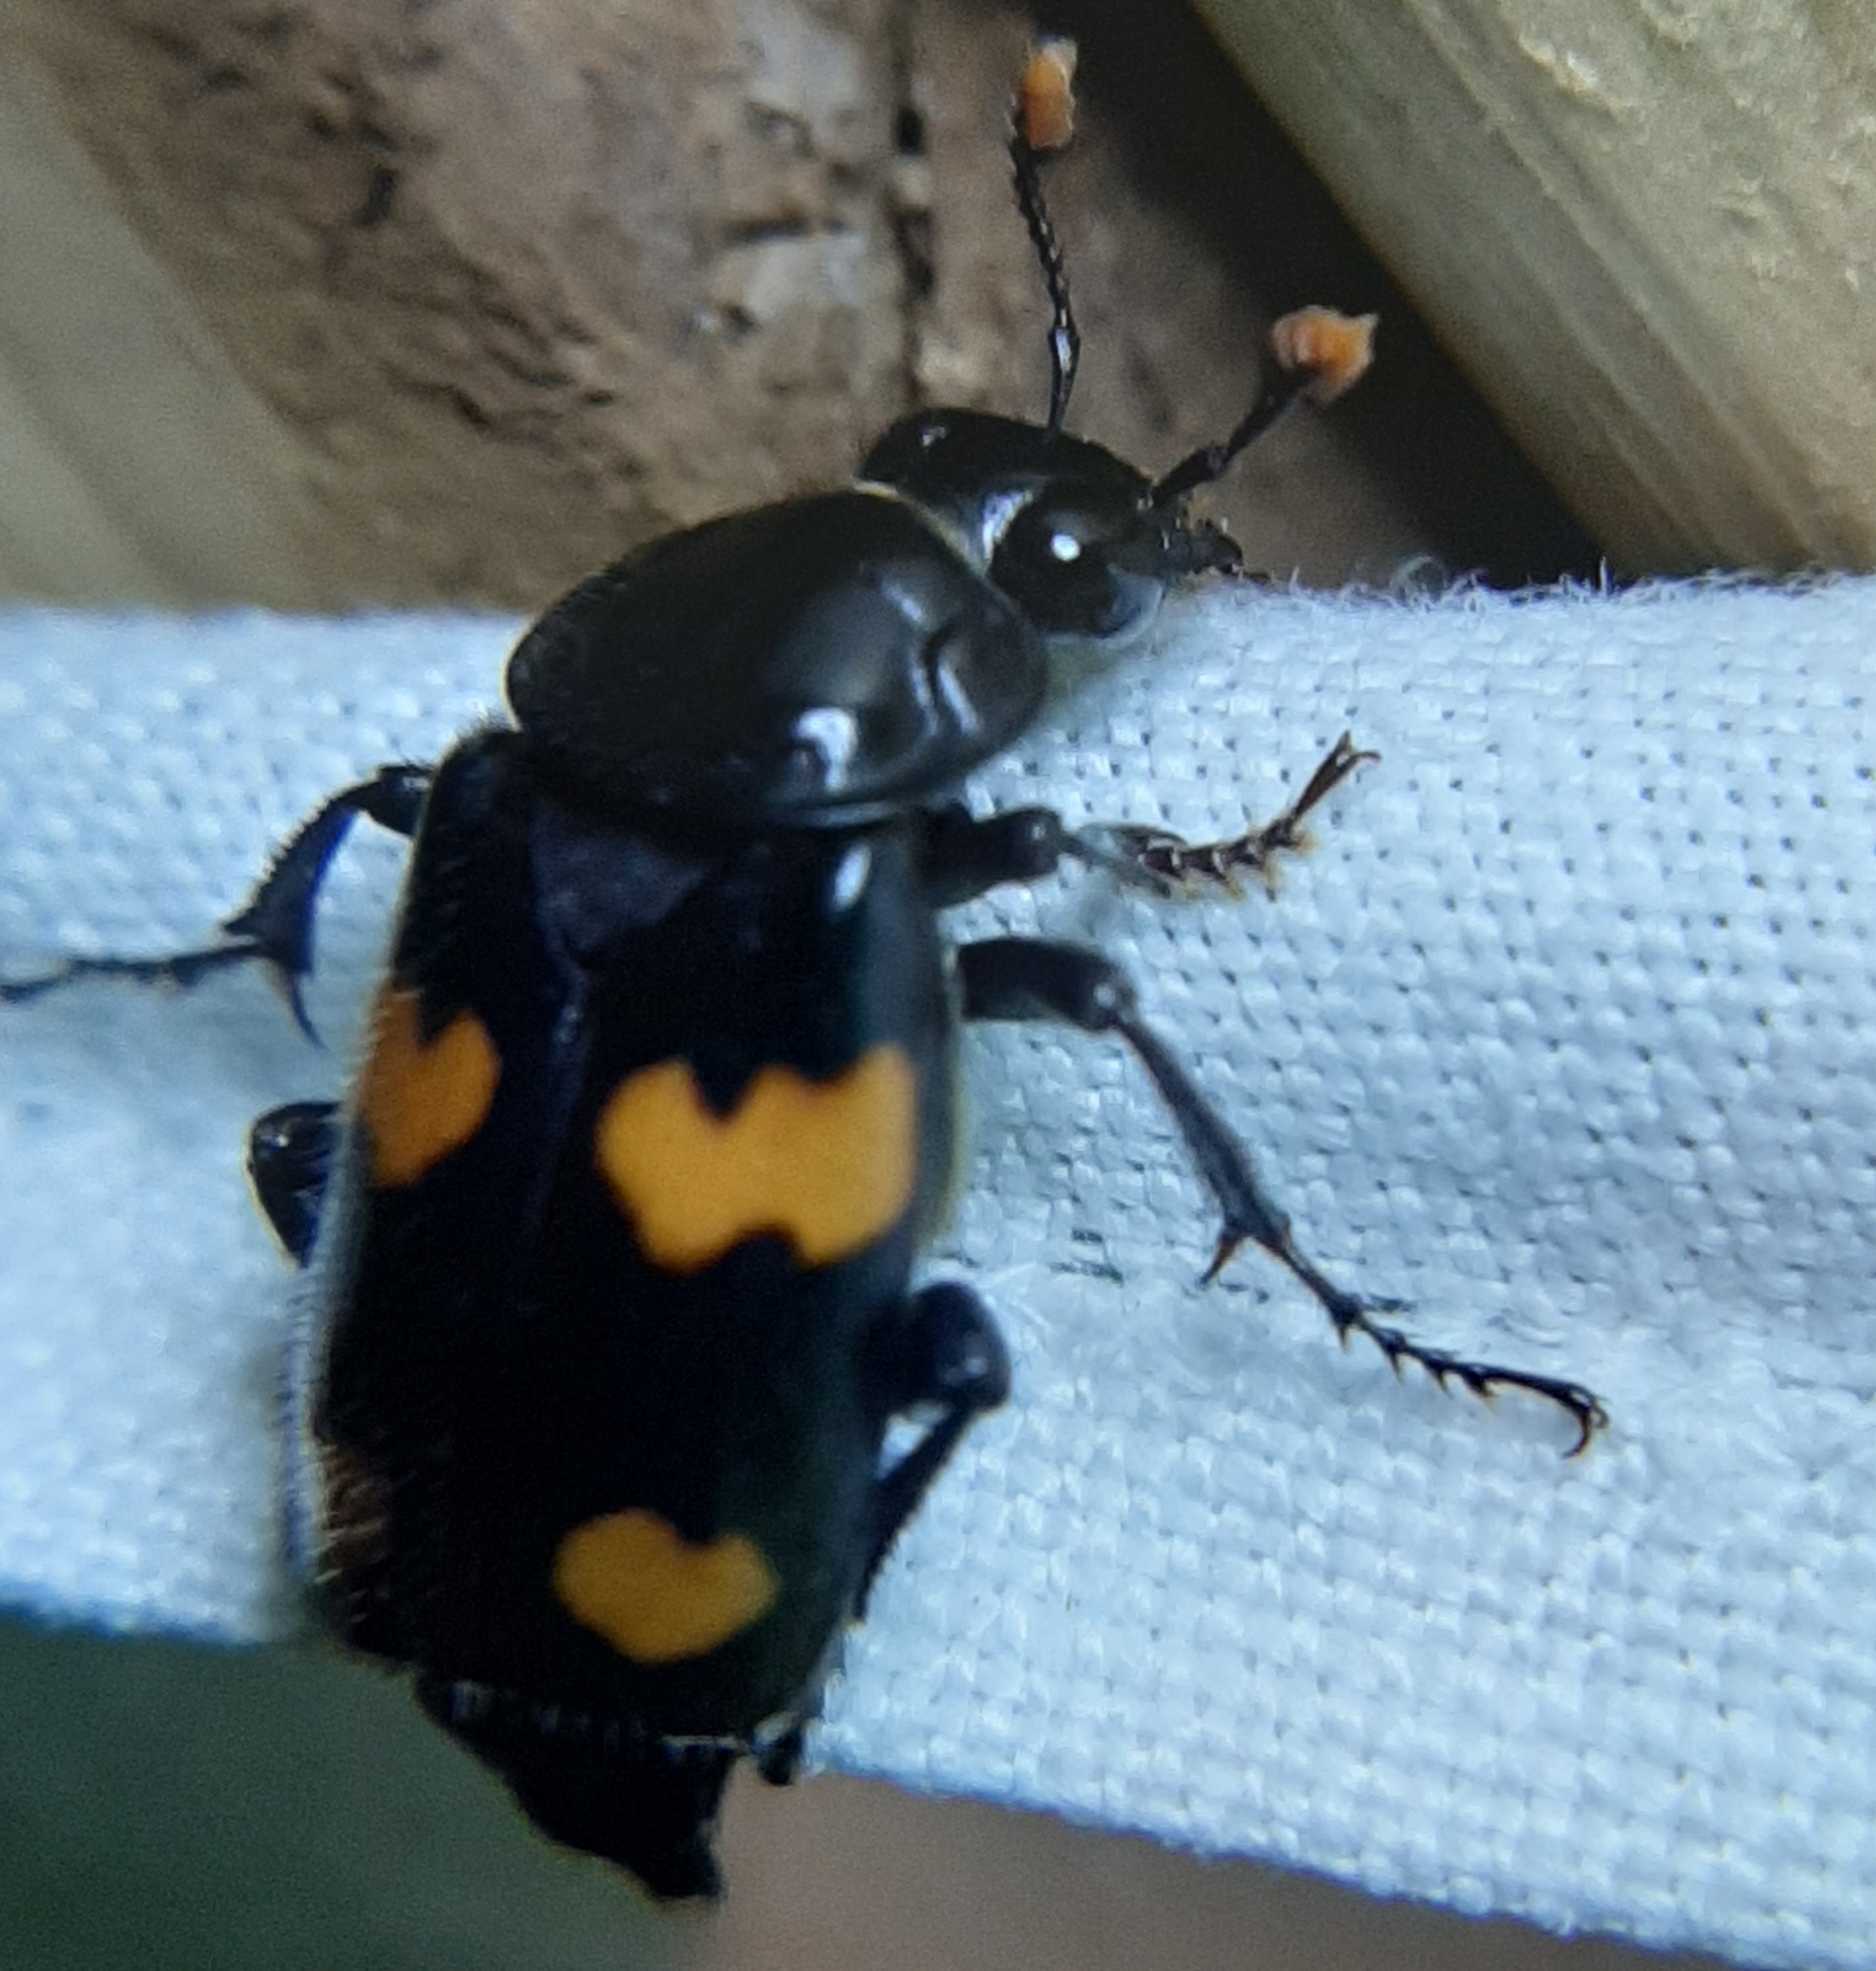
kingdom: Animalia
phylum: Arthropoda
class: Insecta
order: Coleoptera
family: Staphylinidae
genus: Nicrophorus
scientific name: Nicrophorus orbicollis
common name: Roundneck sexton beetle
